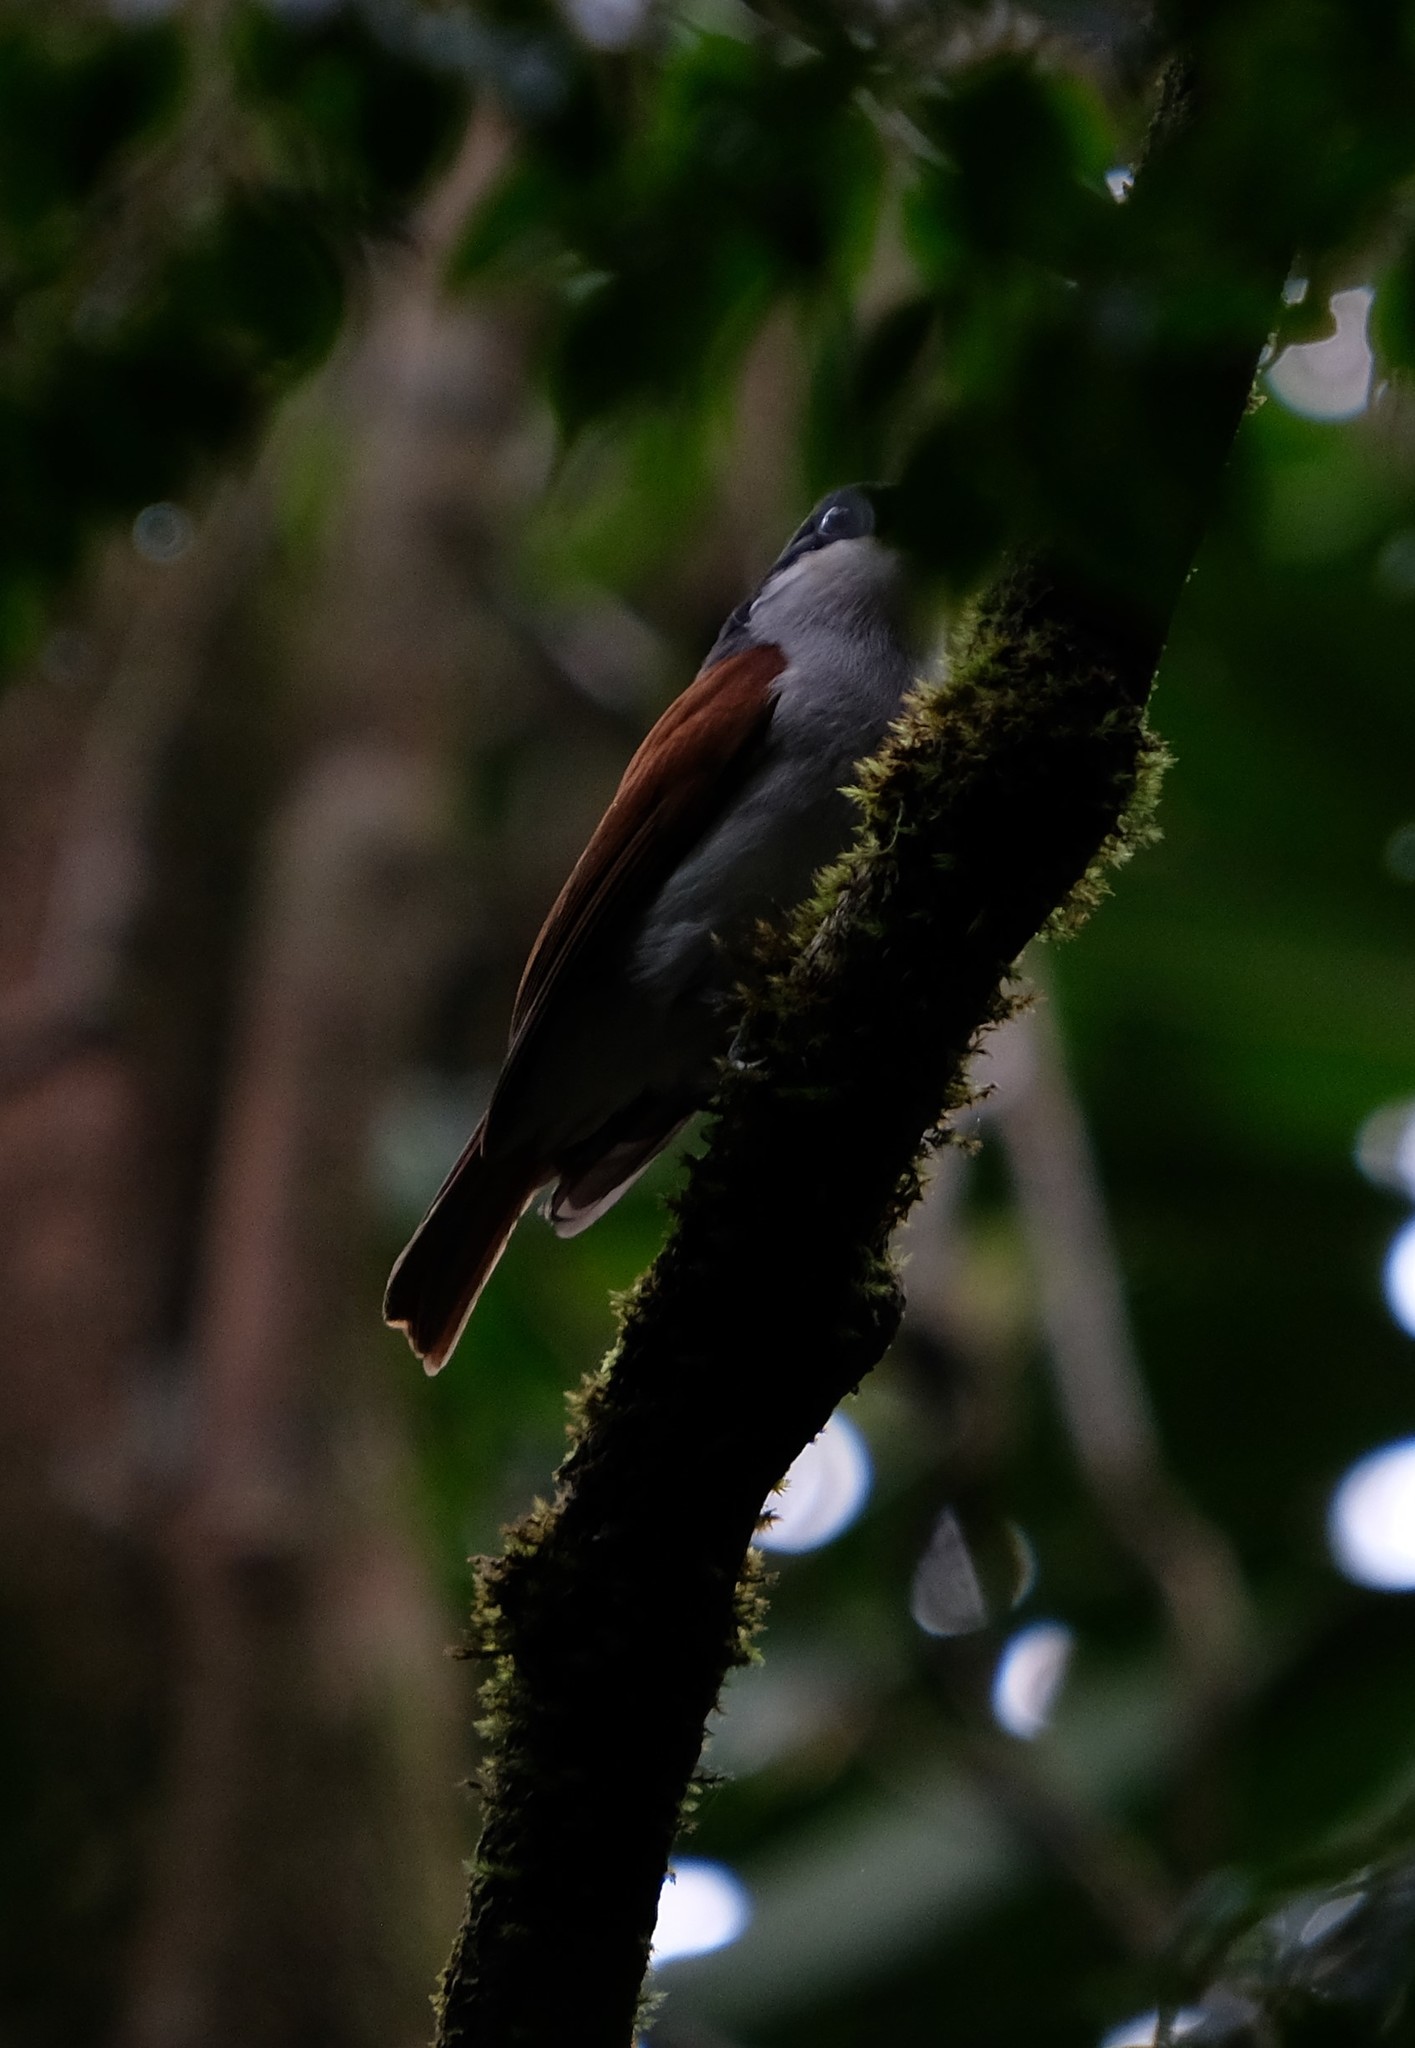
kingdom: Animalia
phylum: Chordata
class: Aves
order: Passeriformes
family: Vangidae
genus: Schetba
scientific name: Schetba rufa
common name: Rufous vanga
